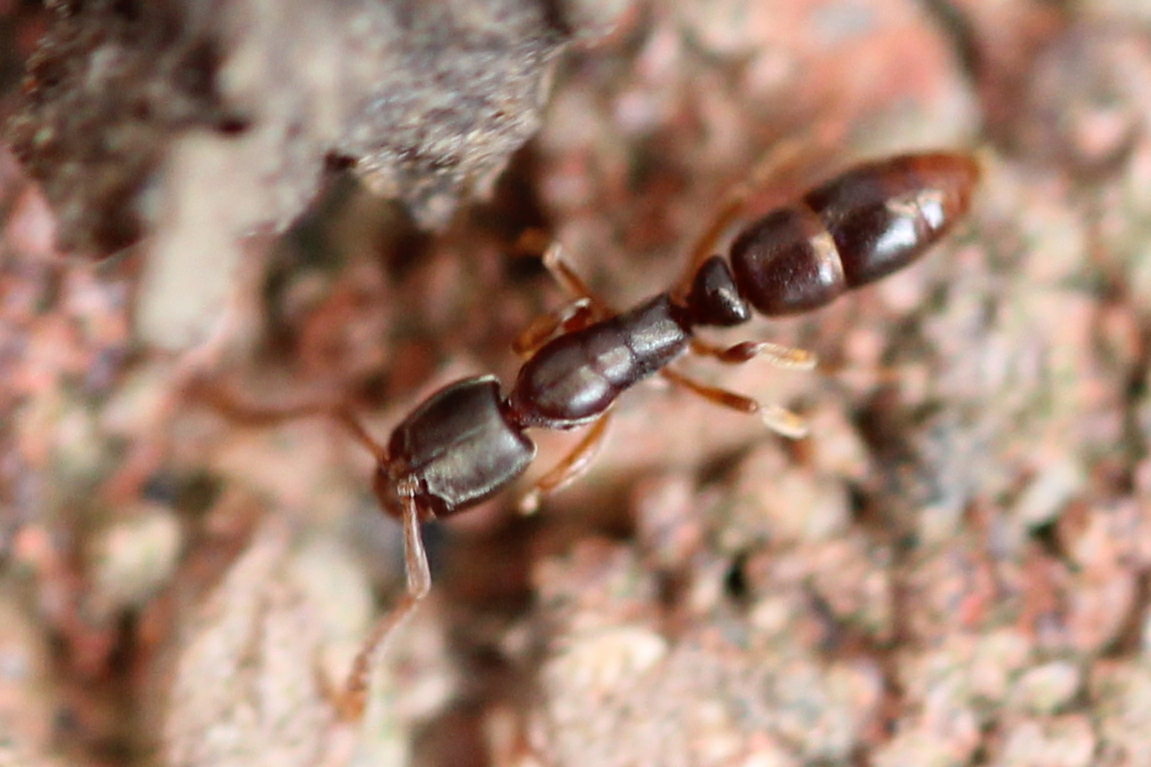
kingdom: Animalia
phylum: Arthropoda
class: Insecta
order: Hymenoptera
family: Formicidae
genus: Ponera
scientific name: Ponera pennsylvanica
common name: Pennsylvania ponera
